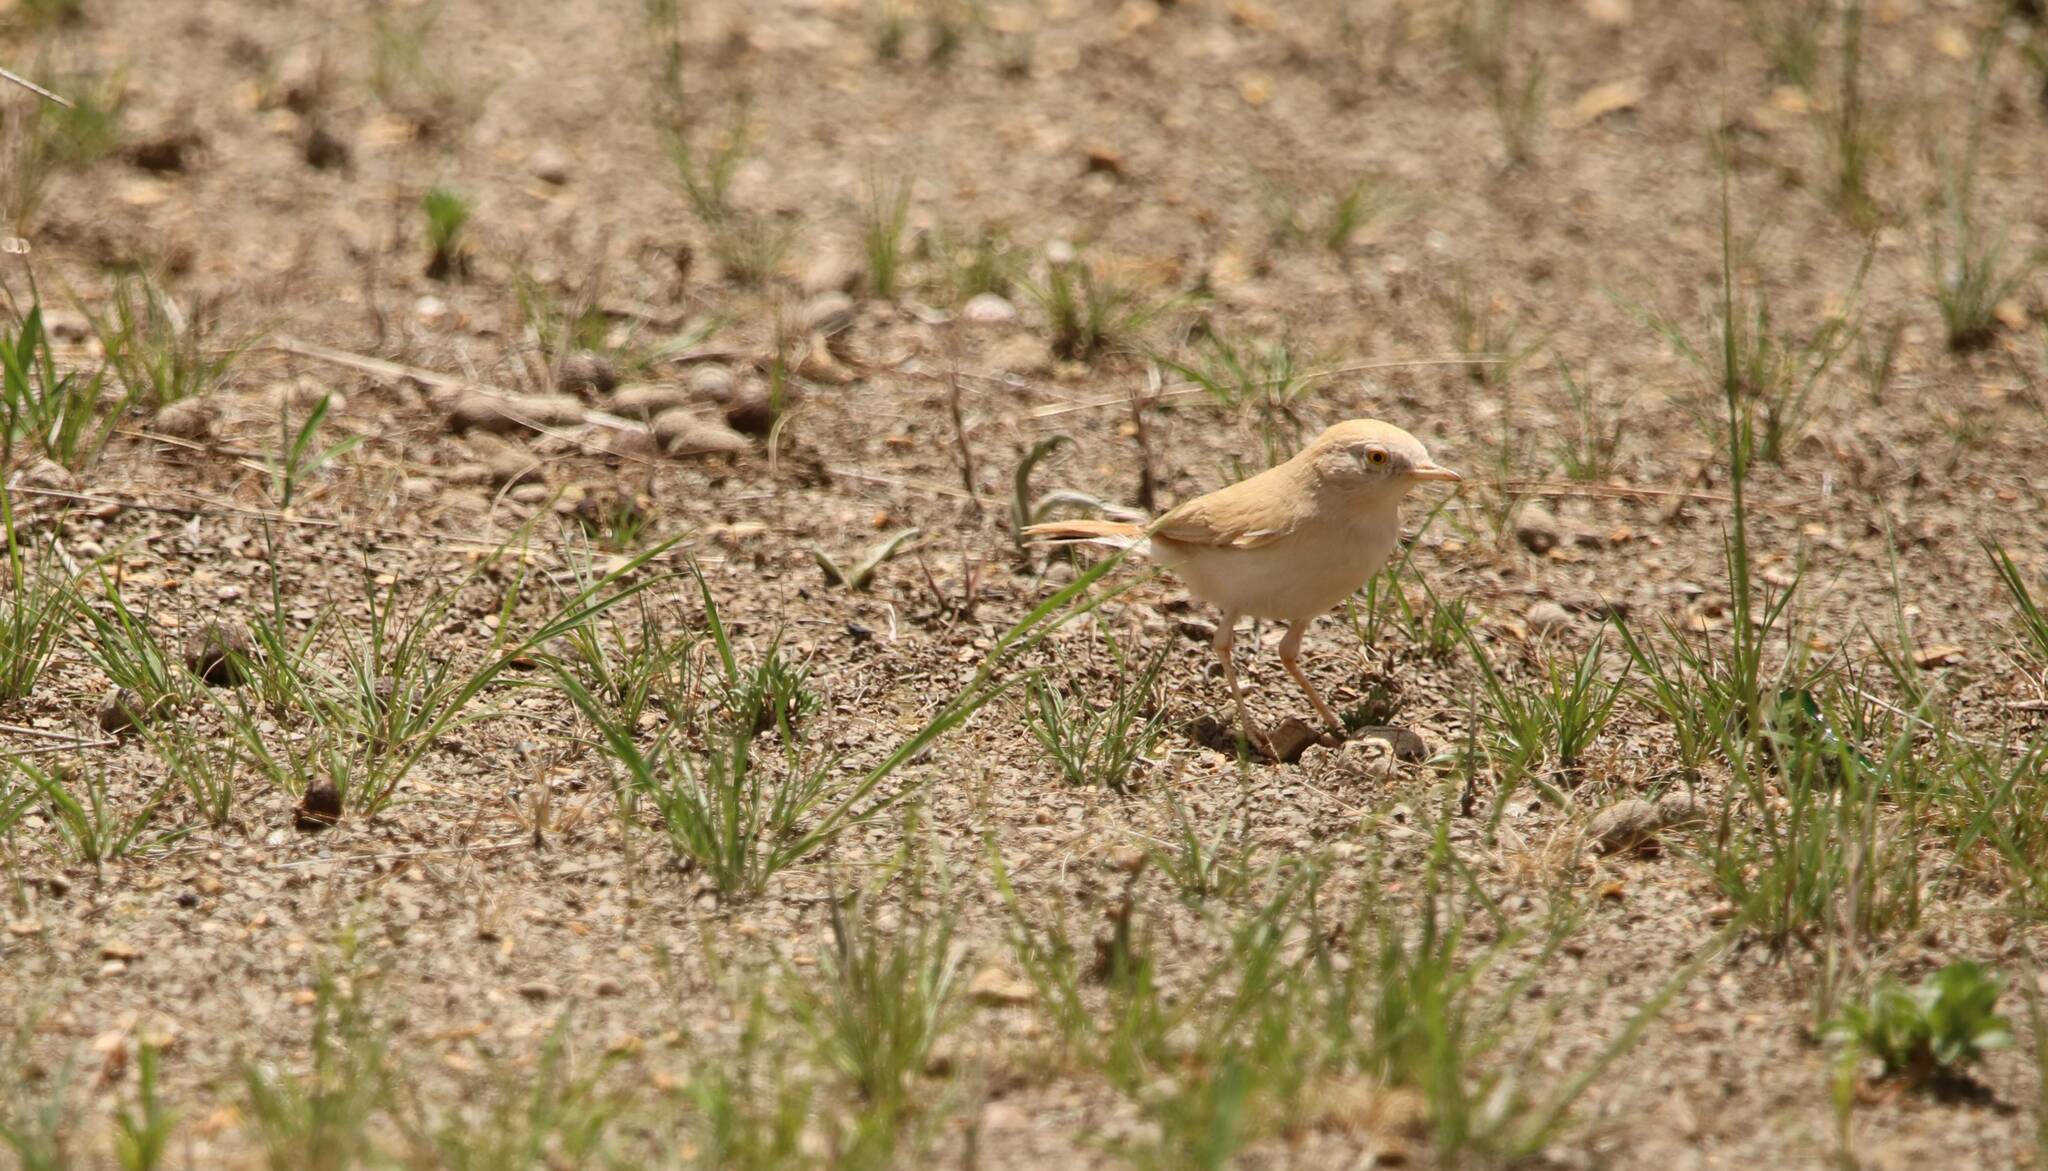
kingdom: Animalia
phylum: Chordata
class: Aves
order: Passeriformes
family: Sylviidae
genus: Sylvia
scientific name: Sylvia deserti
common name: African desert warbler
